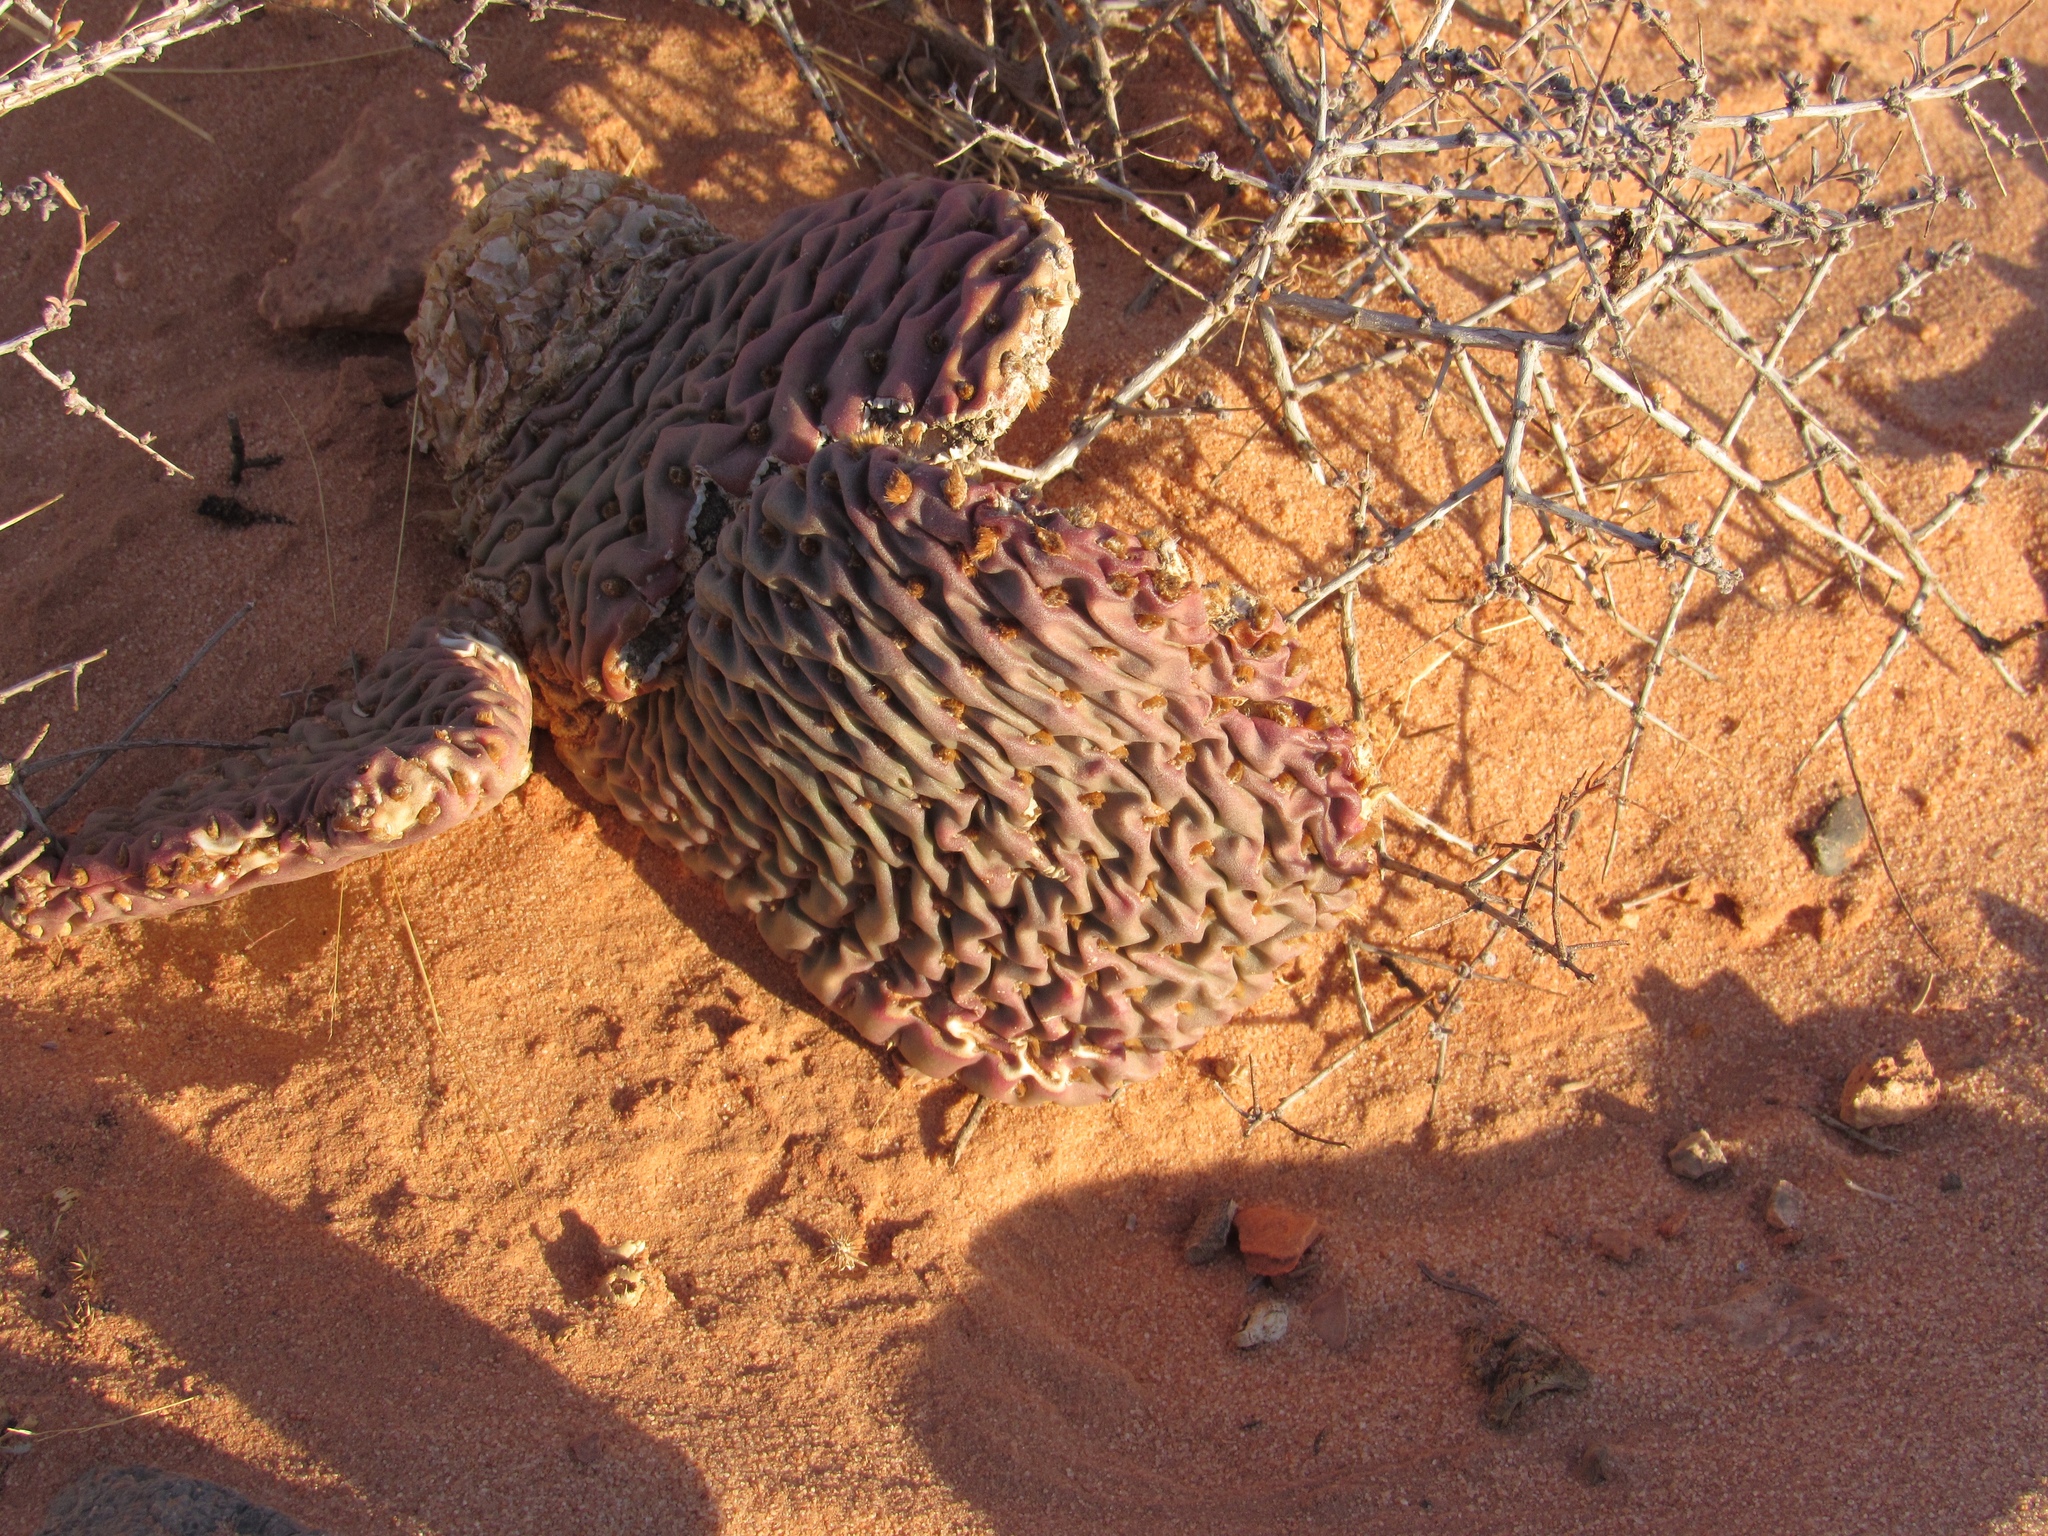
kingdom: Plantae
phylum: Tracheophyta
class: Magnoliopsida
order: Caryophyllales
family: Cactaceae
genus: Opuntia
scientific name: Opuntia basilaris
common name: Beavertail prickly-pear
